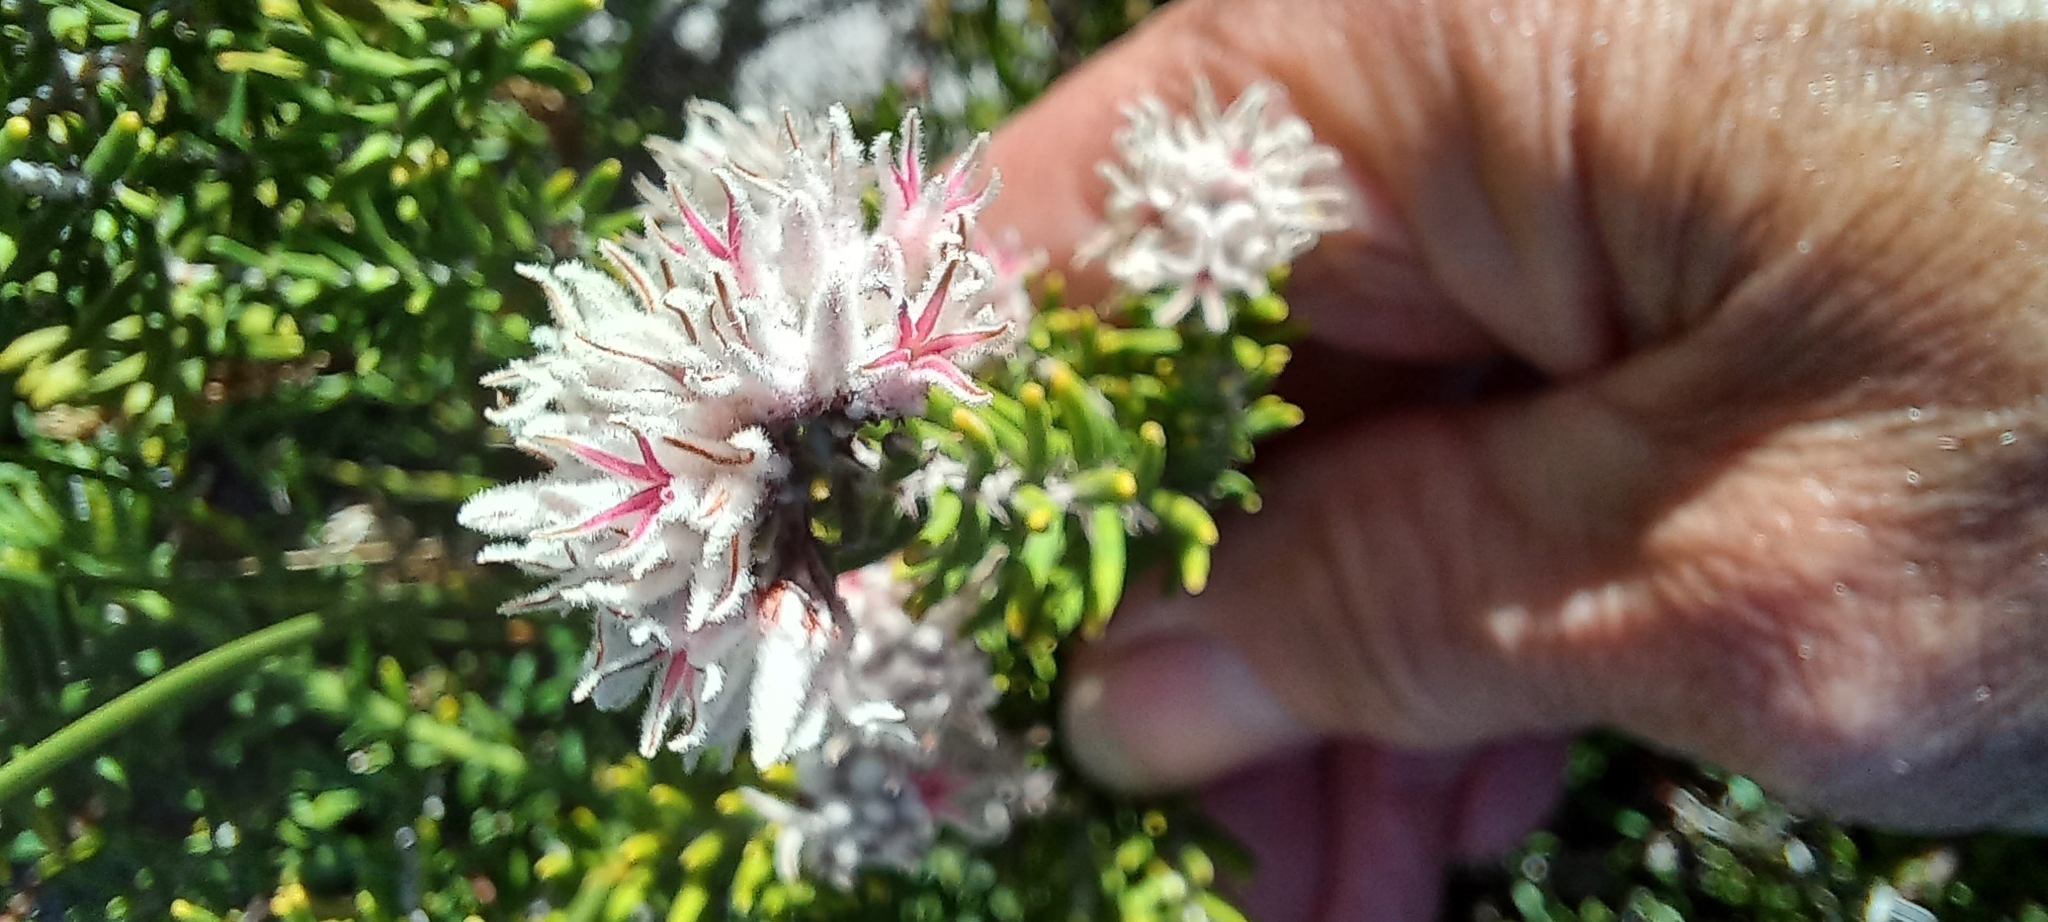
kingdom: Plantae
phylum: Tracheophyta
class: Magnoliopsida
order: Rosales
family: Rhamnaceae
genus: Trichocephalus
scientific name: Trichocephalus stipularis
